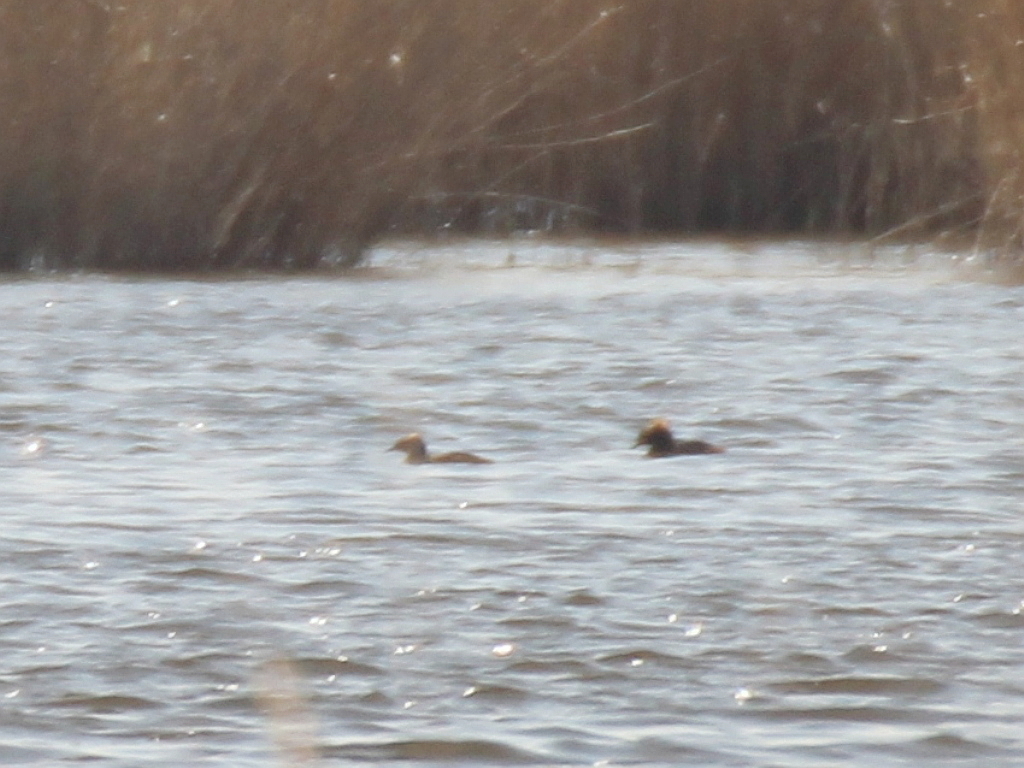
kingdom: Animalia
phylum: Chordata
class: Aves
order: Podicipediformes
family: Podicipedidae
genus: Podiceps
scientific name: Podiceps auritus
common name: Horned grebe
